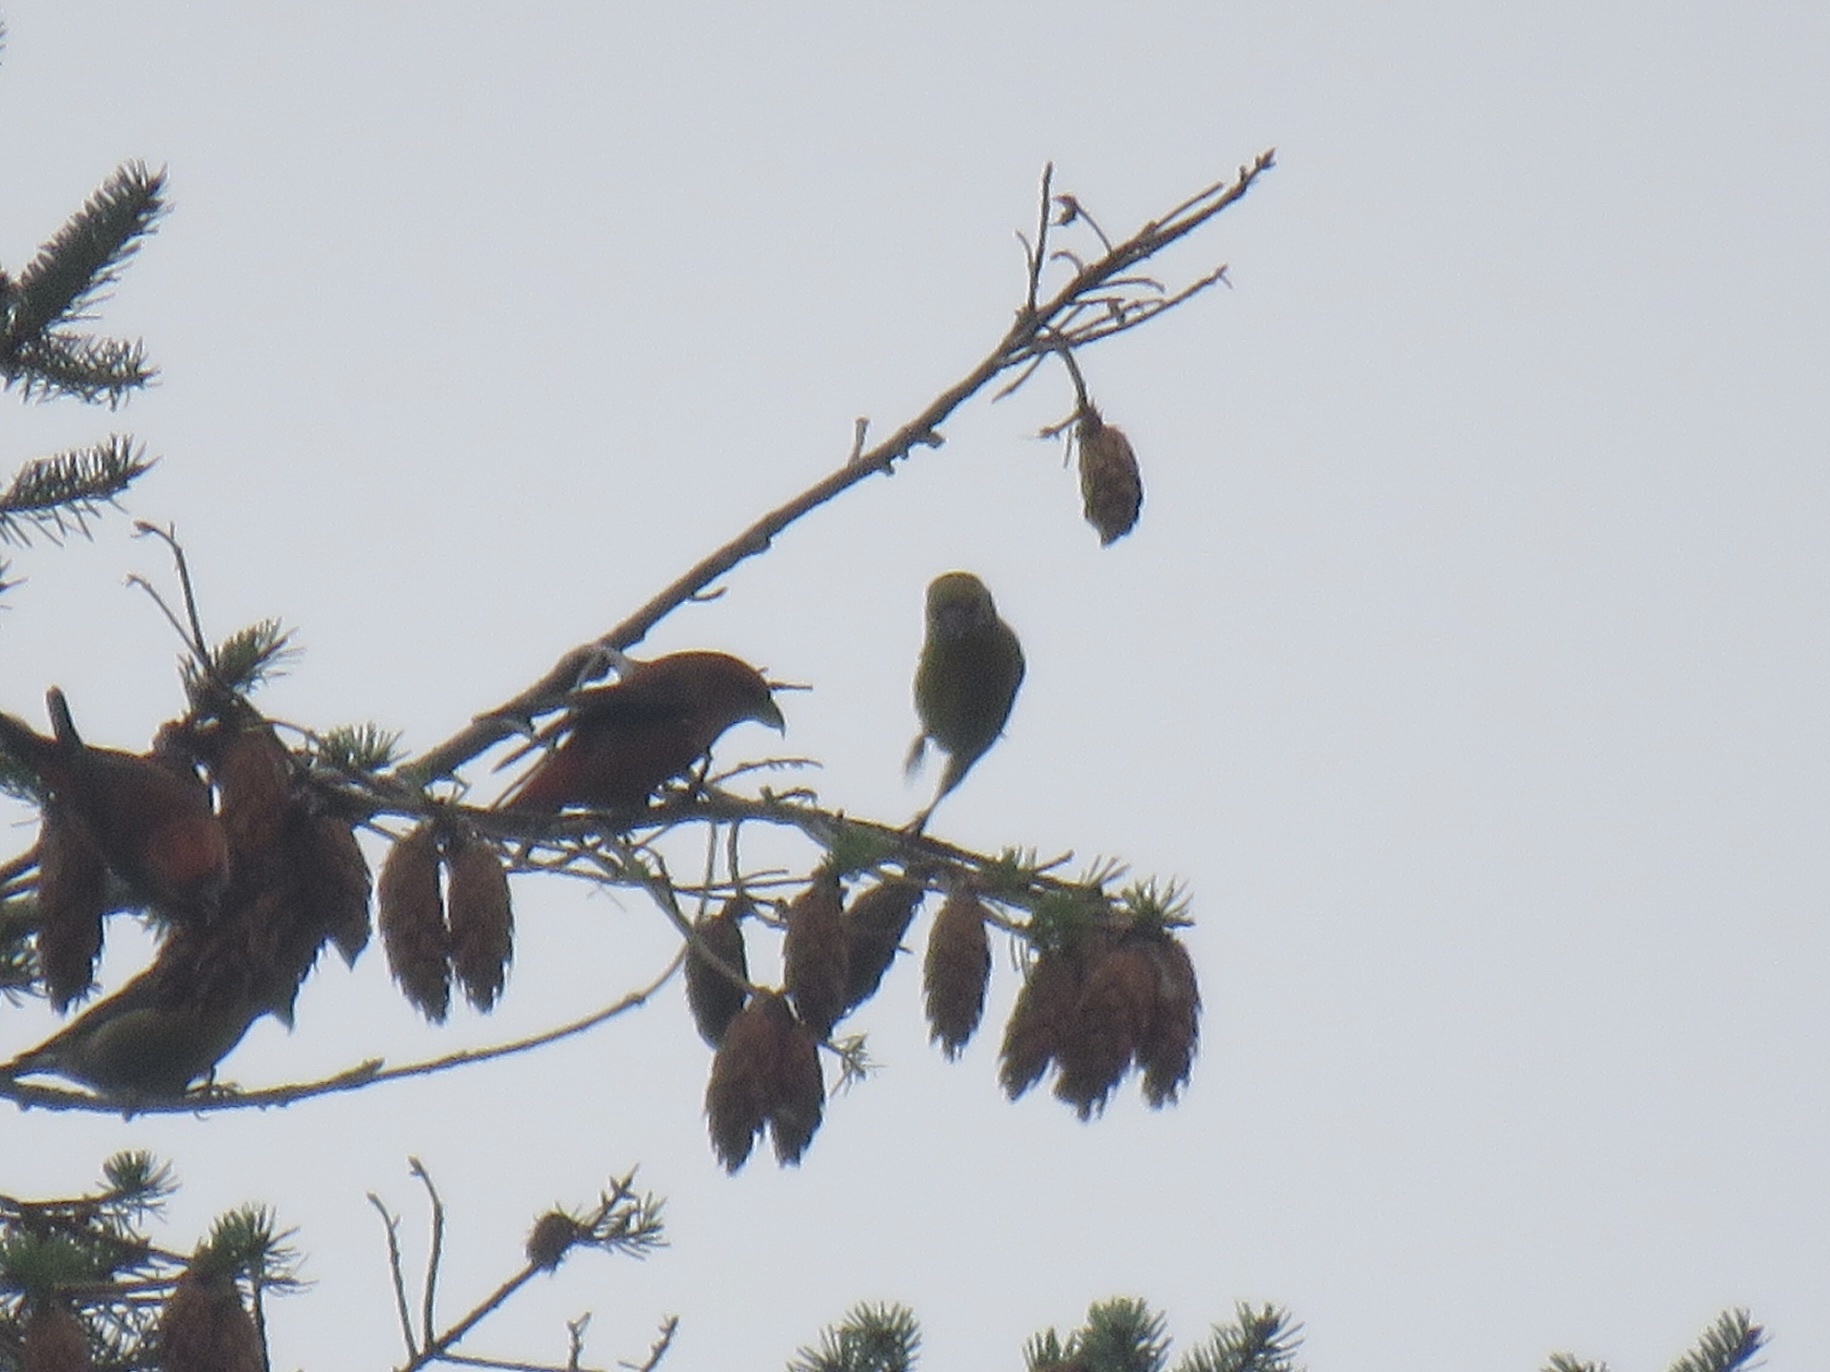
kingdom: Animalia
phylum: Chordata
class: Aves
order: Passeriformes
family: Fringillidae
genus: Loxia
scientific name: Loxia curvirostra
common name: Red crossbill
